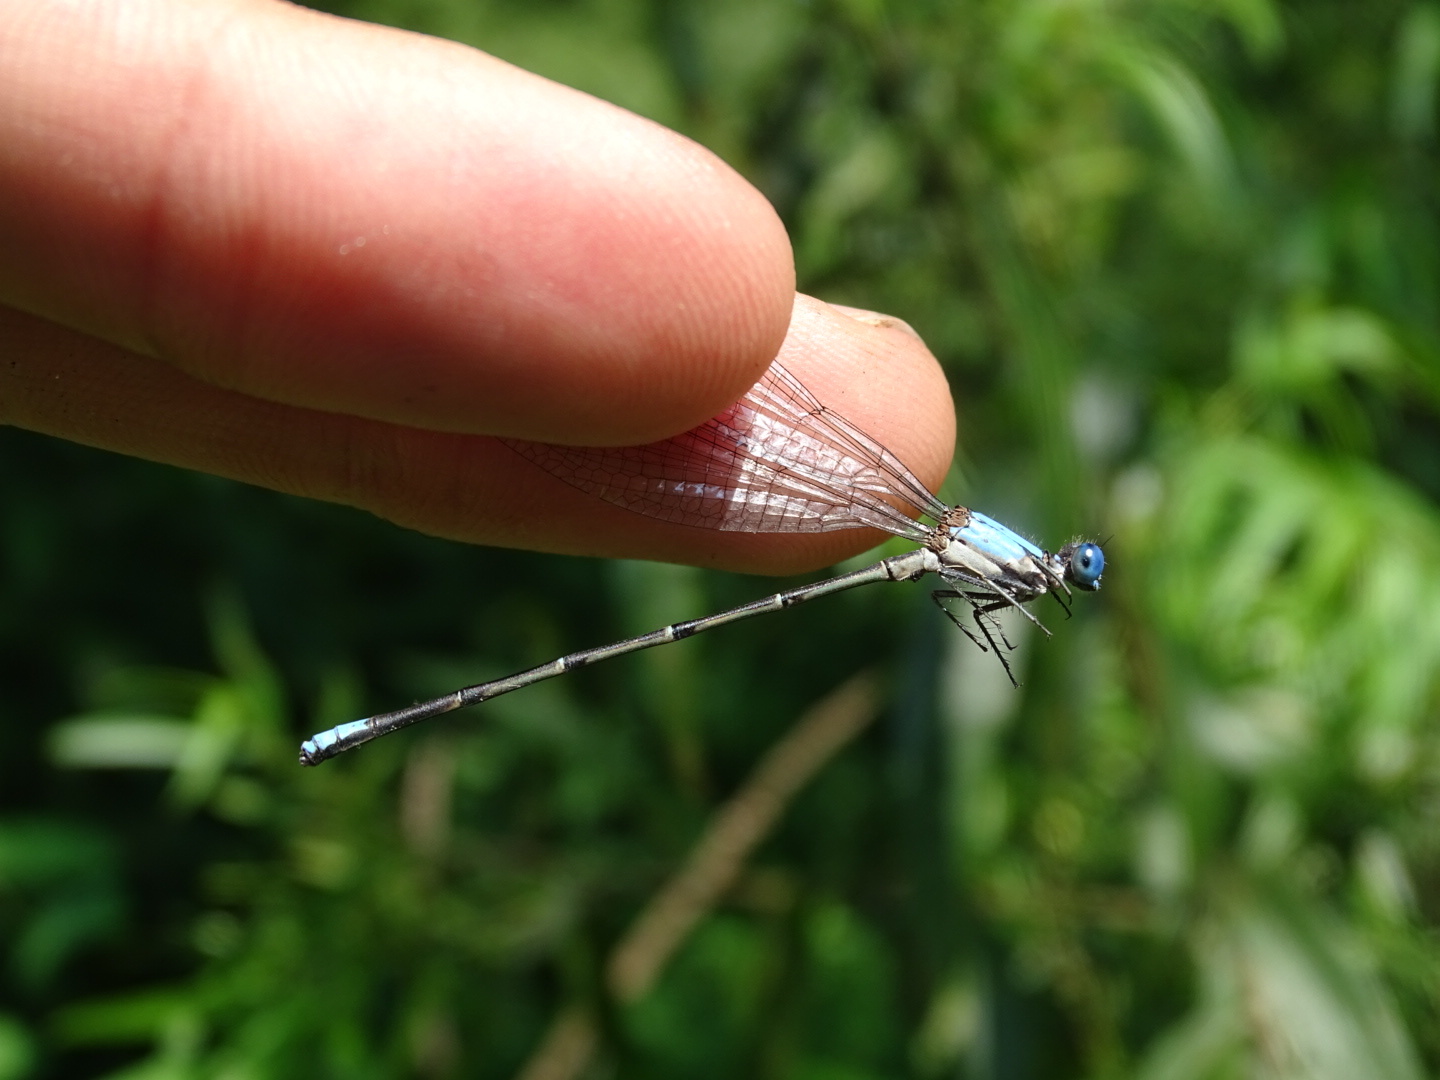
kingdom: Animalia
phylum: Arthropoda
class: Insecta
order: Odonata
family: Coenagrionidae
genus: Argia
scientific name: Argia apicalis
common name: Blue-fronted dancer
